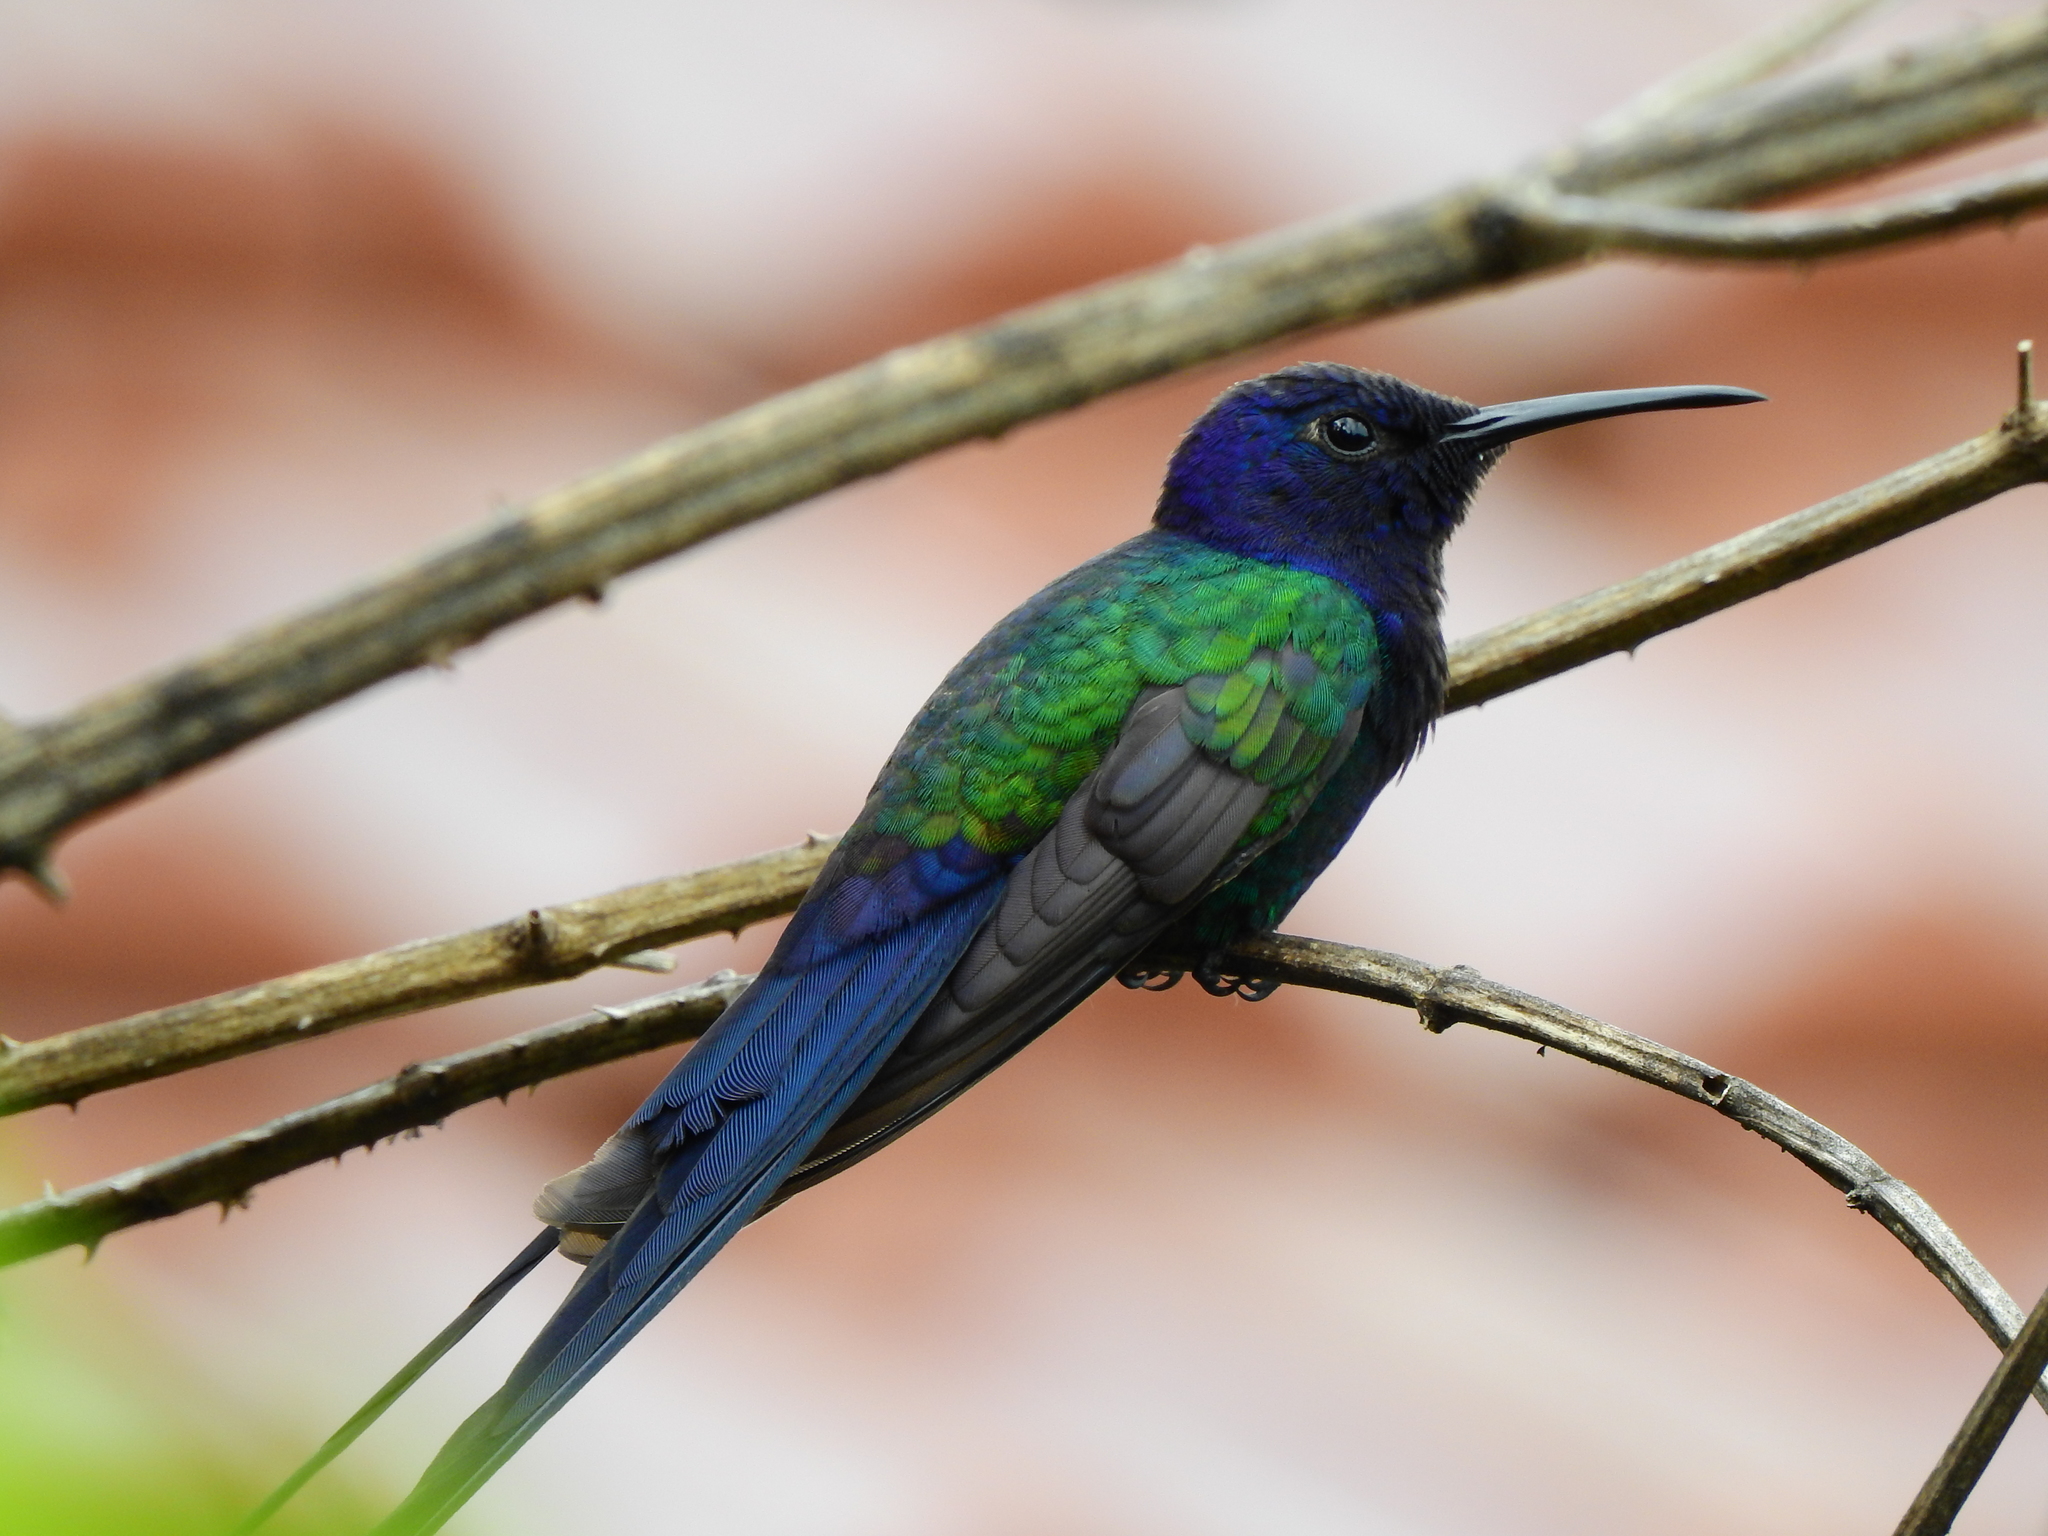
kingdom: Animalia
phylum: Chordata
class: Aves
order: Apodiformes
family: Trochilidae
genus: Eupetomena
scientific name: Eupetomena macroura
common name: Swallow-tailed hummingbird
